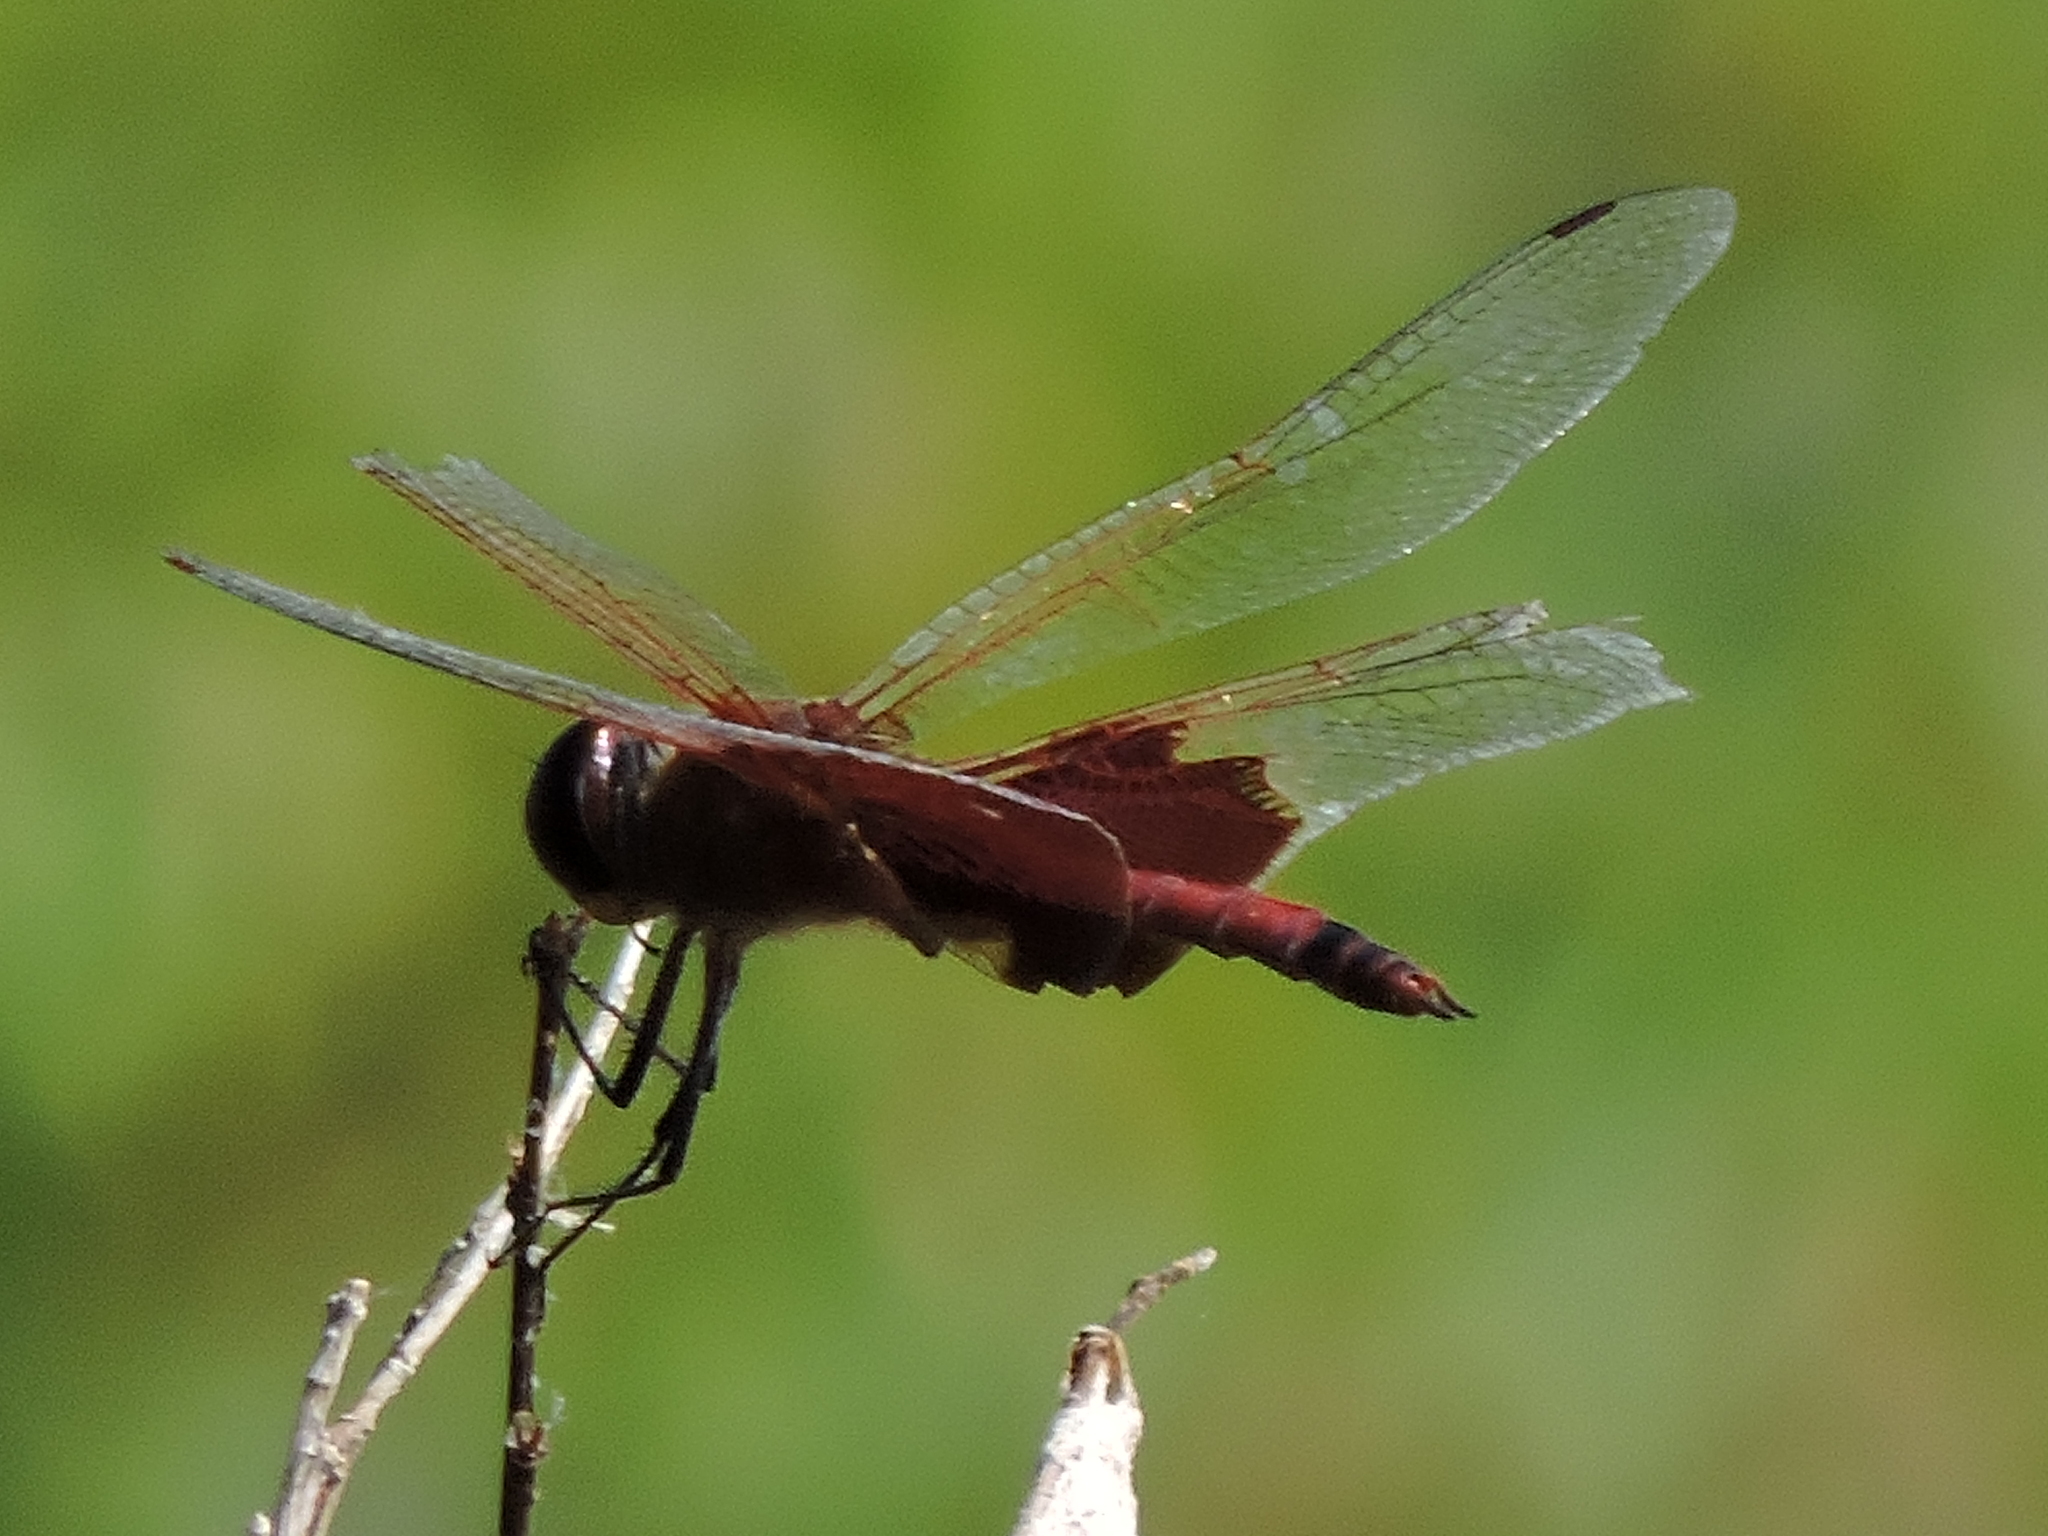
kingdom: Animalia
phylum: Arthropoda
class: Insecta
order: Odonata
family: Libellulidae
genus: Tramea
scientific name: Tramea carolina
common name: Carolina saddlebags
